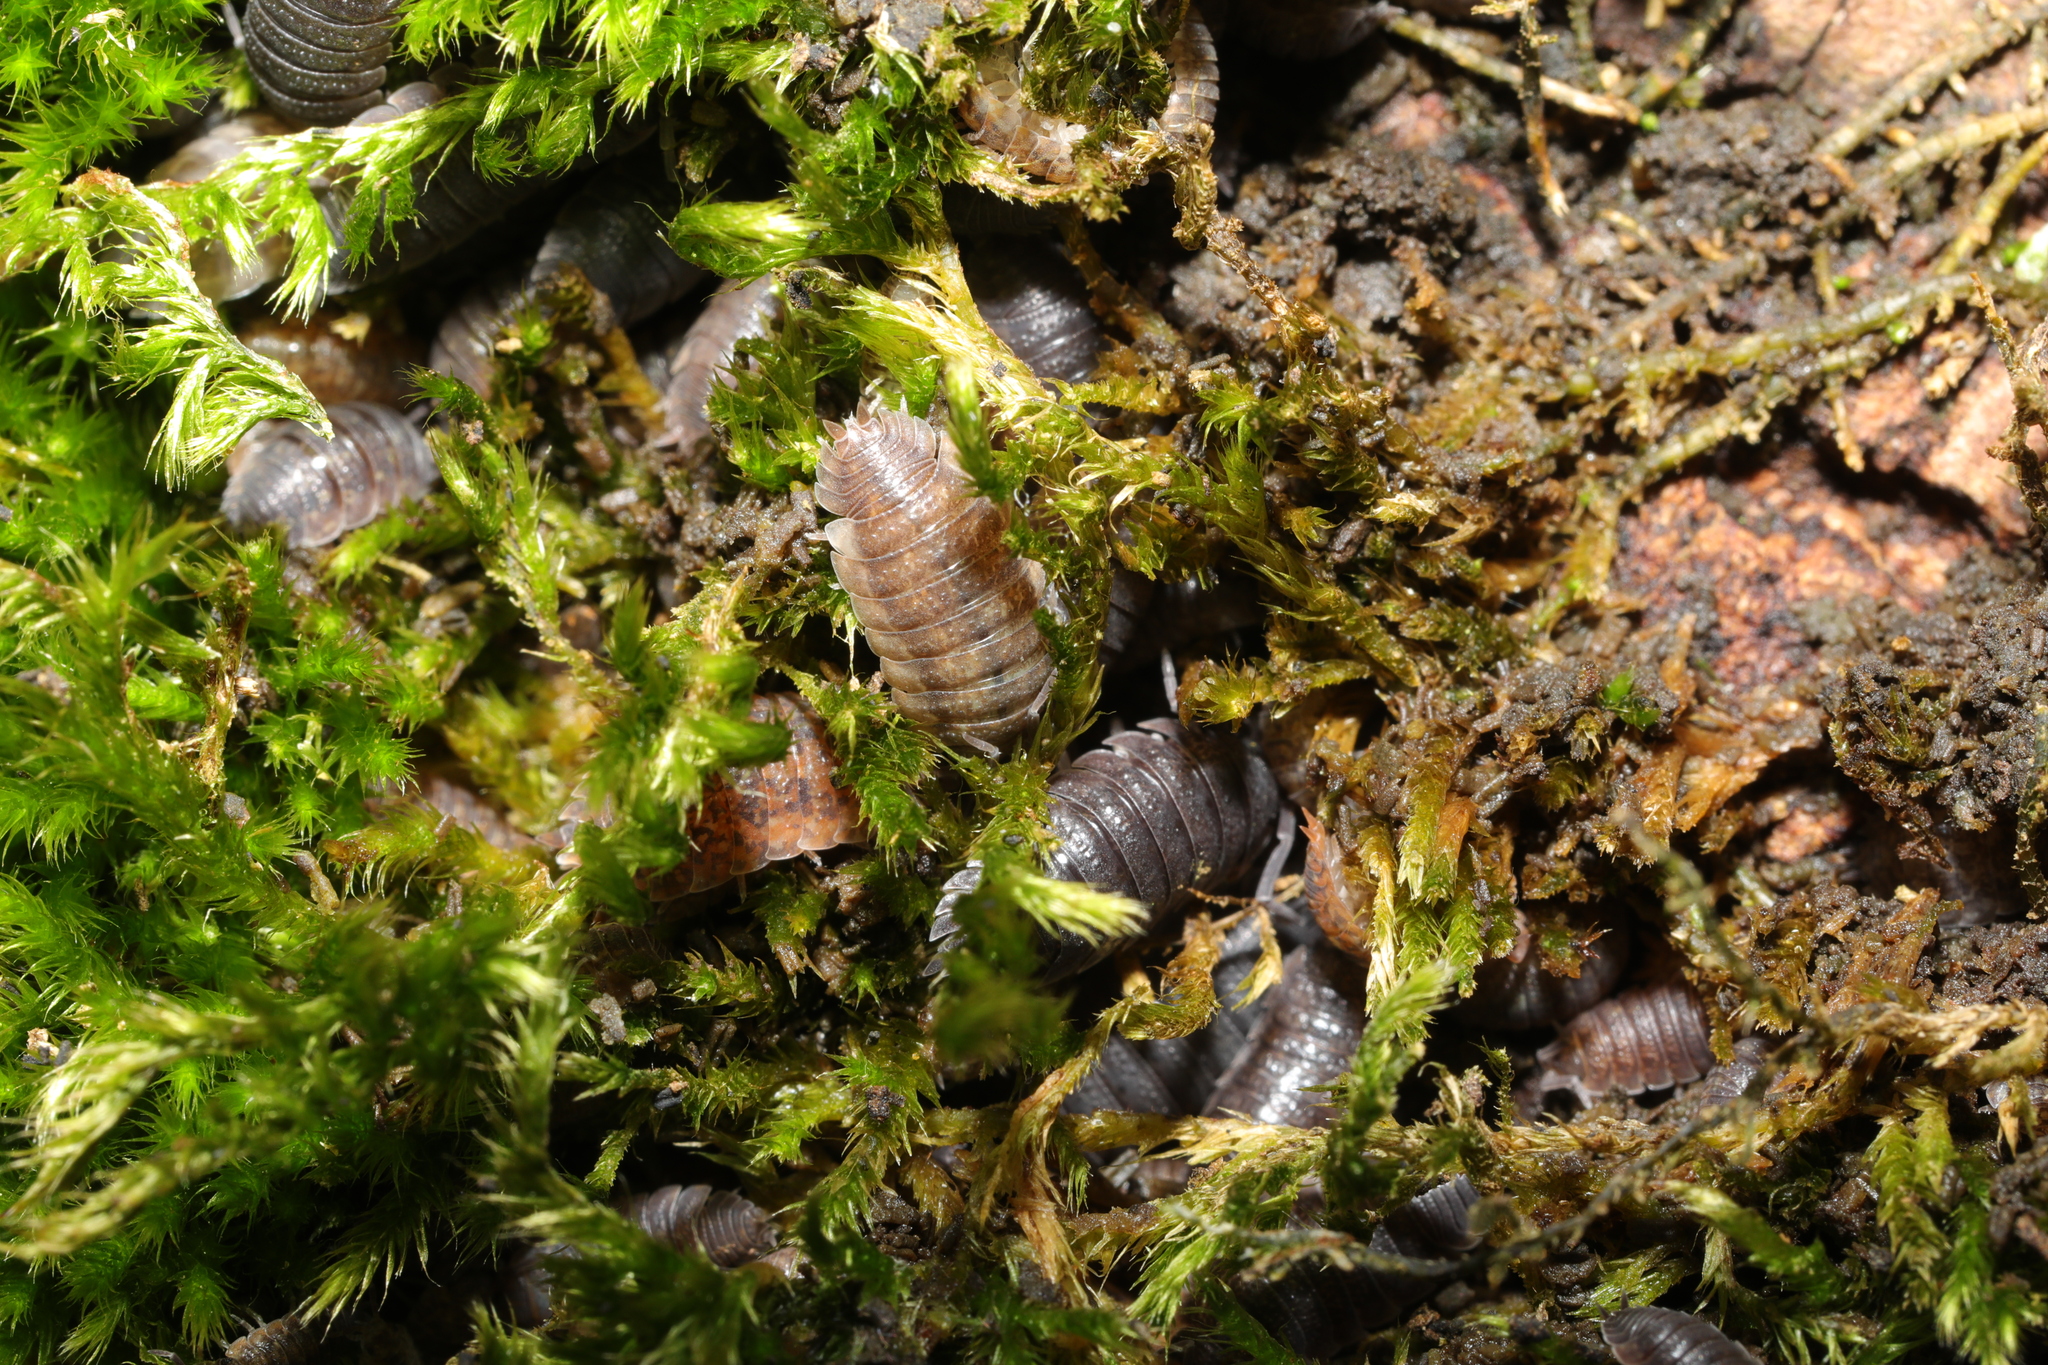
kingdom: Animalia
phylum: Arthropoda
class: Malacostraca
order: Isopoda
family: Porcellionidae
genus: Porcellio
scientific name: Porcellio scaber
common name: Common rough woodlouse
